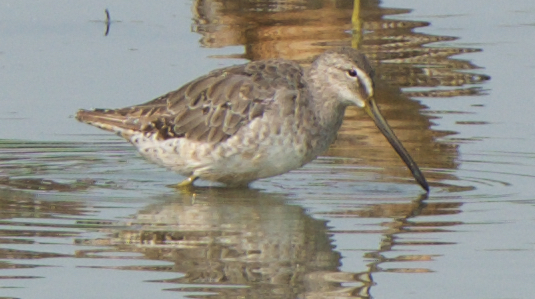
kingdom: Animalia
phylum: Chordata
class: Aves
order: Charadriiformes
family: Scolopacidae
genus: Limnodromus
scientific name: Limnodromus scolopaceus
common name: Long-billed dowitcher
